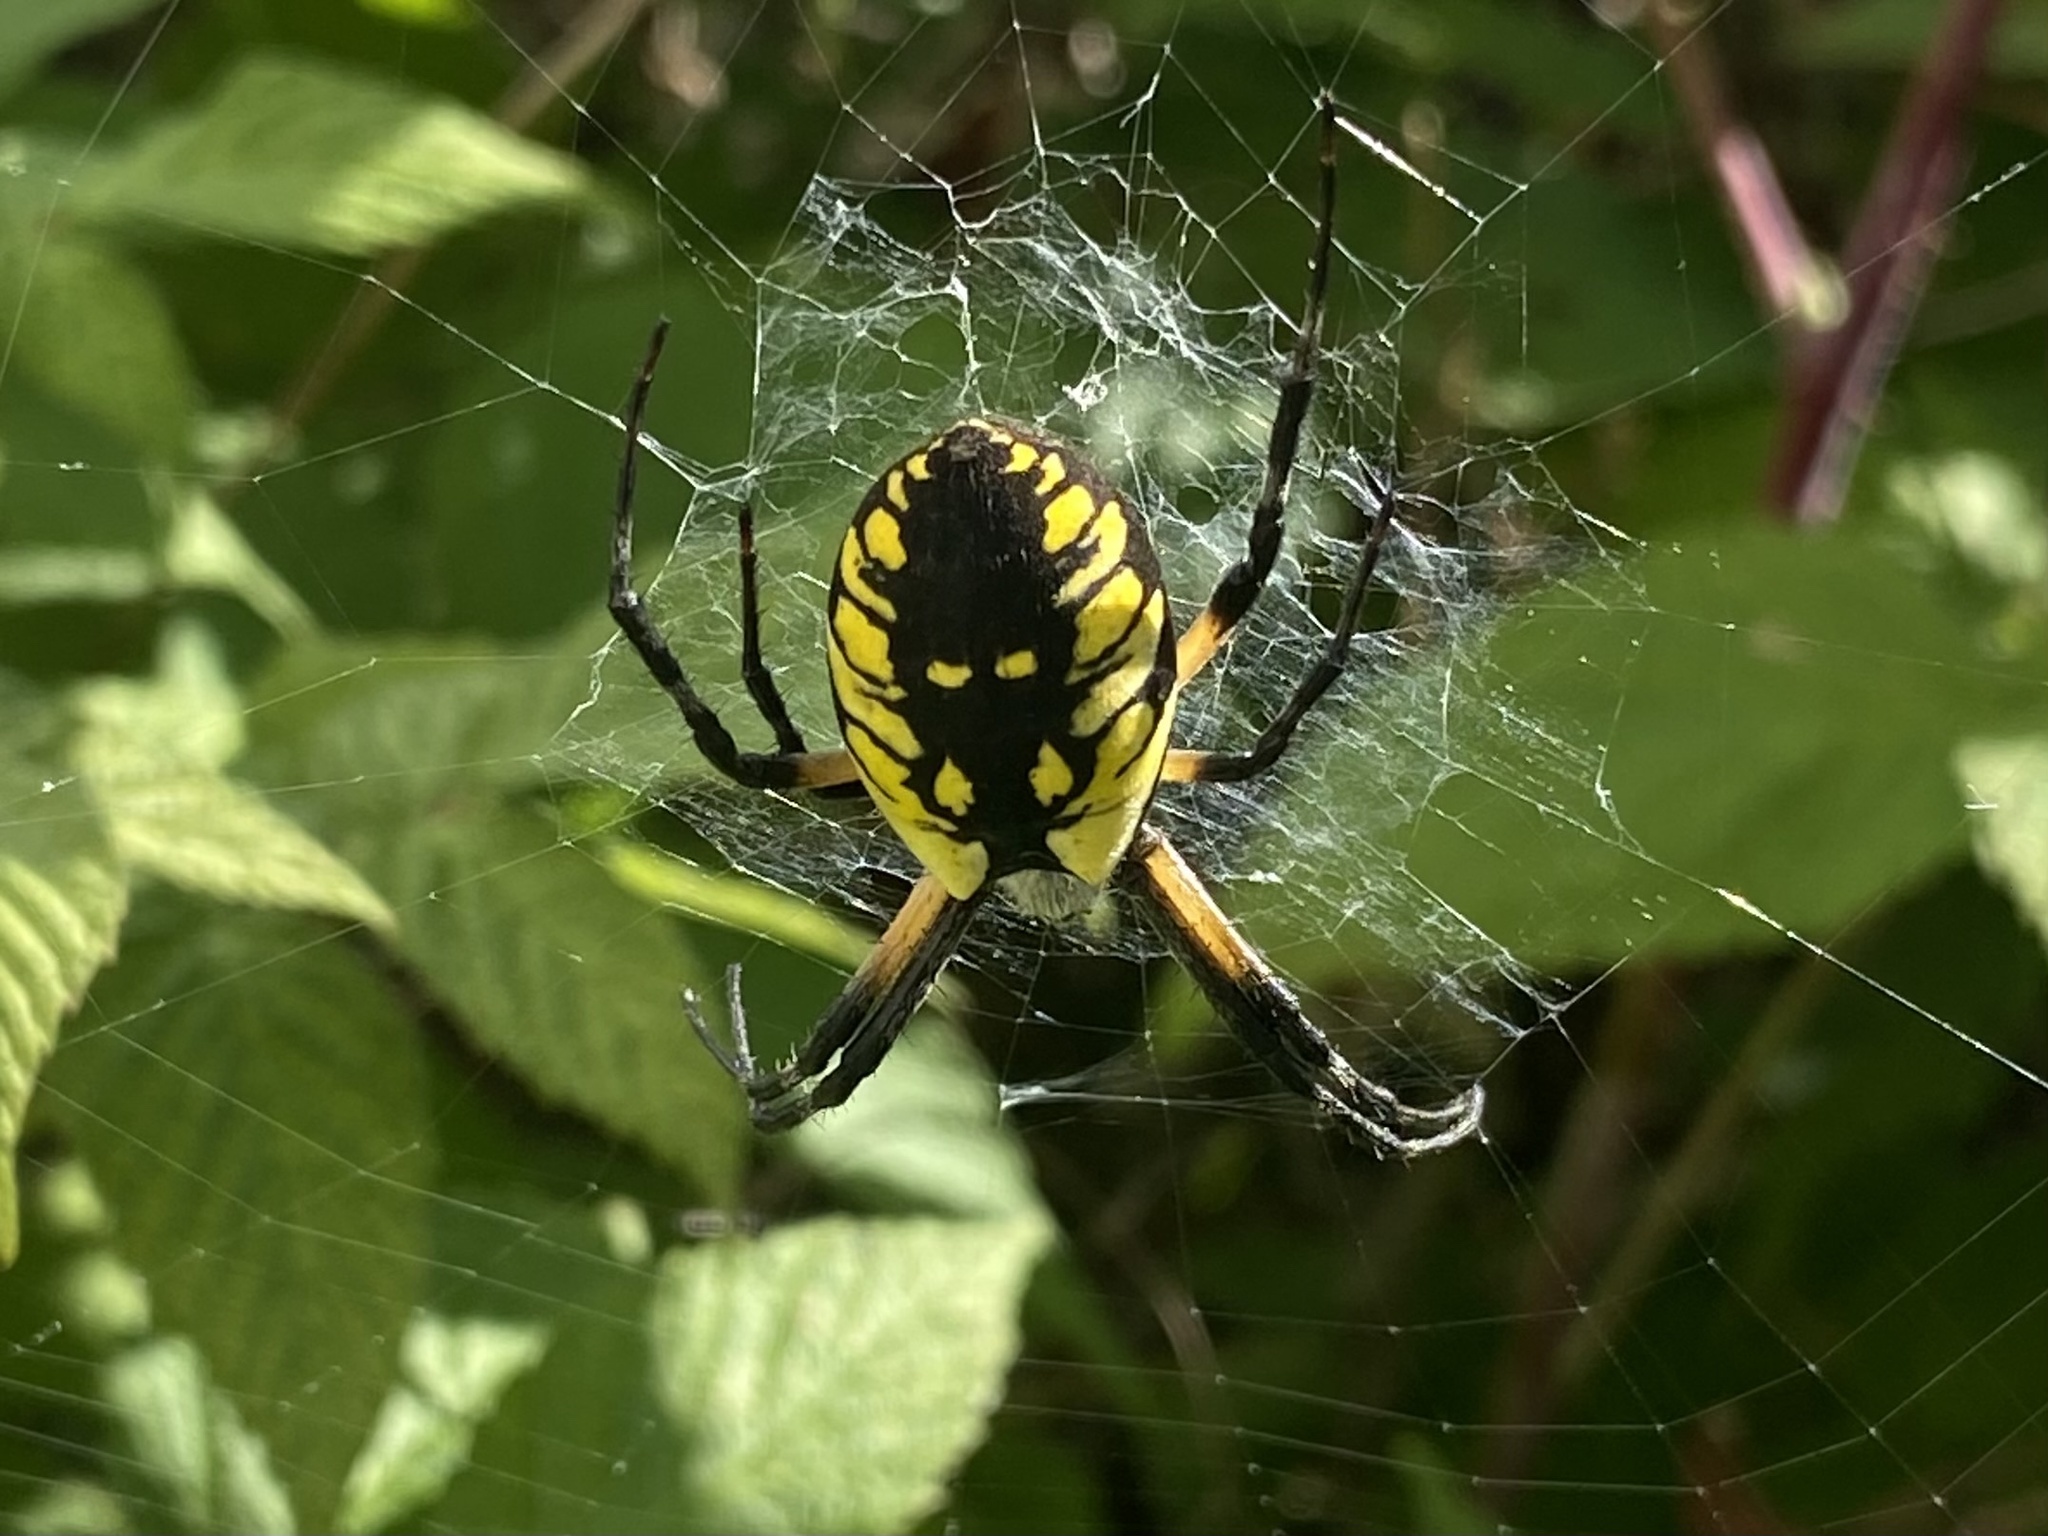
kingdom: Animalia
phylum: Arthropoda
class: Arachnida
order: Araneae
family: Araneidae
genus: Argiope
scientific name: Argiope aurantia
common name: Orb weavers
